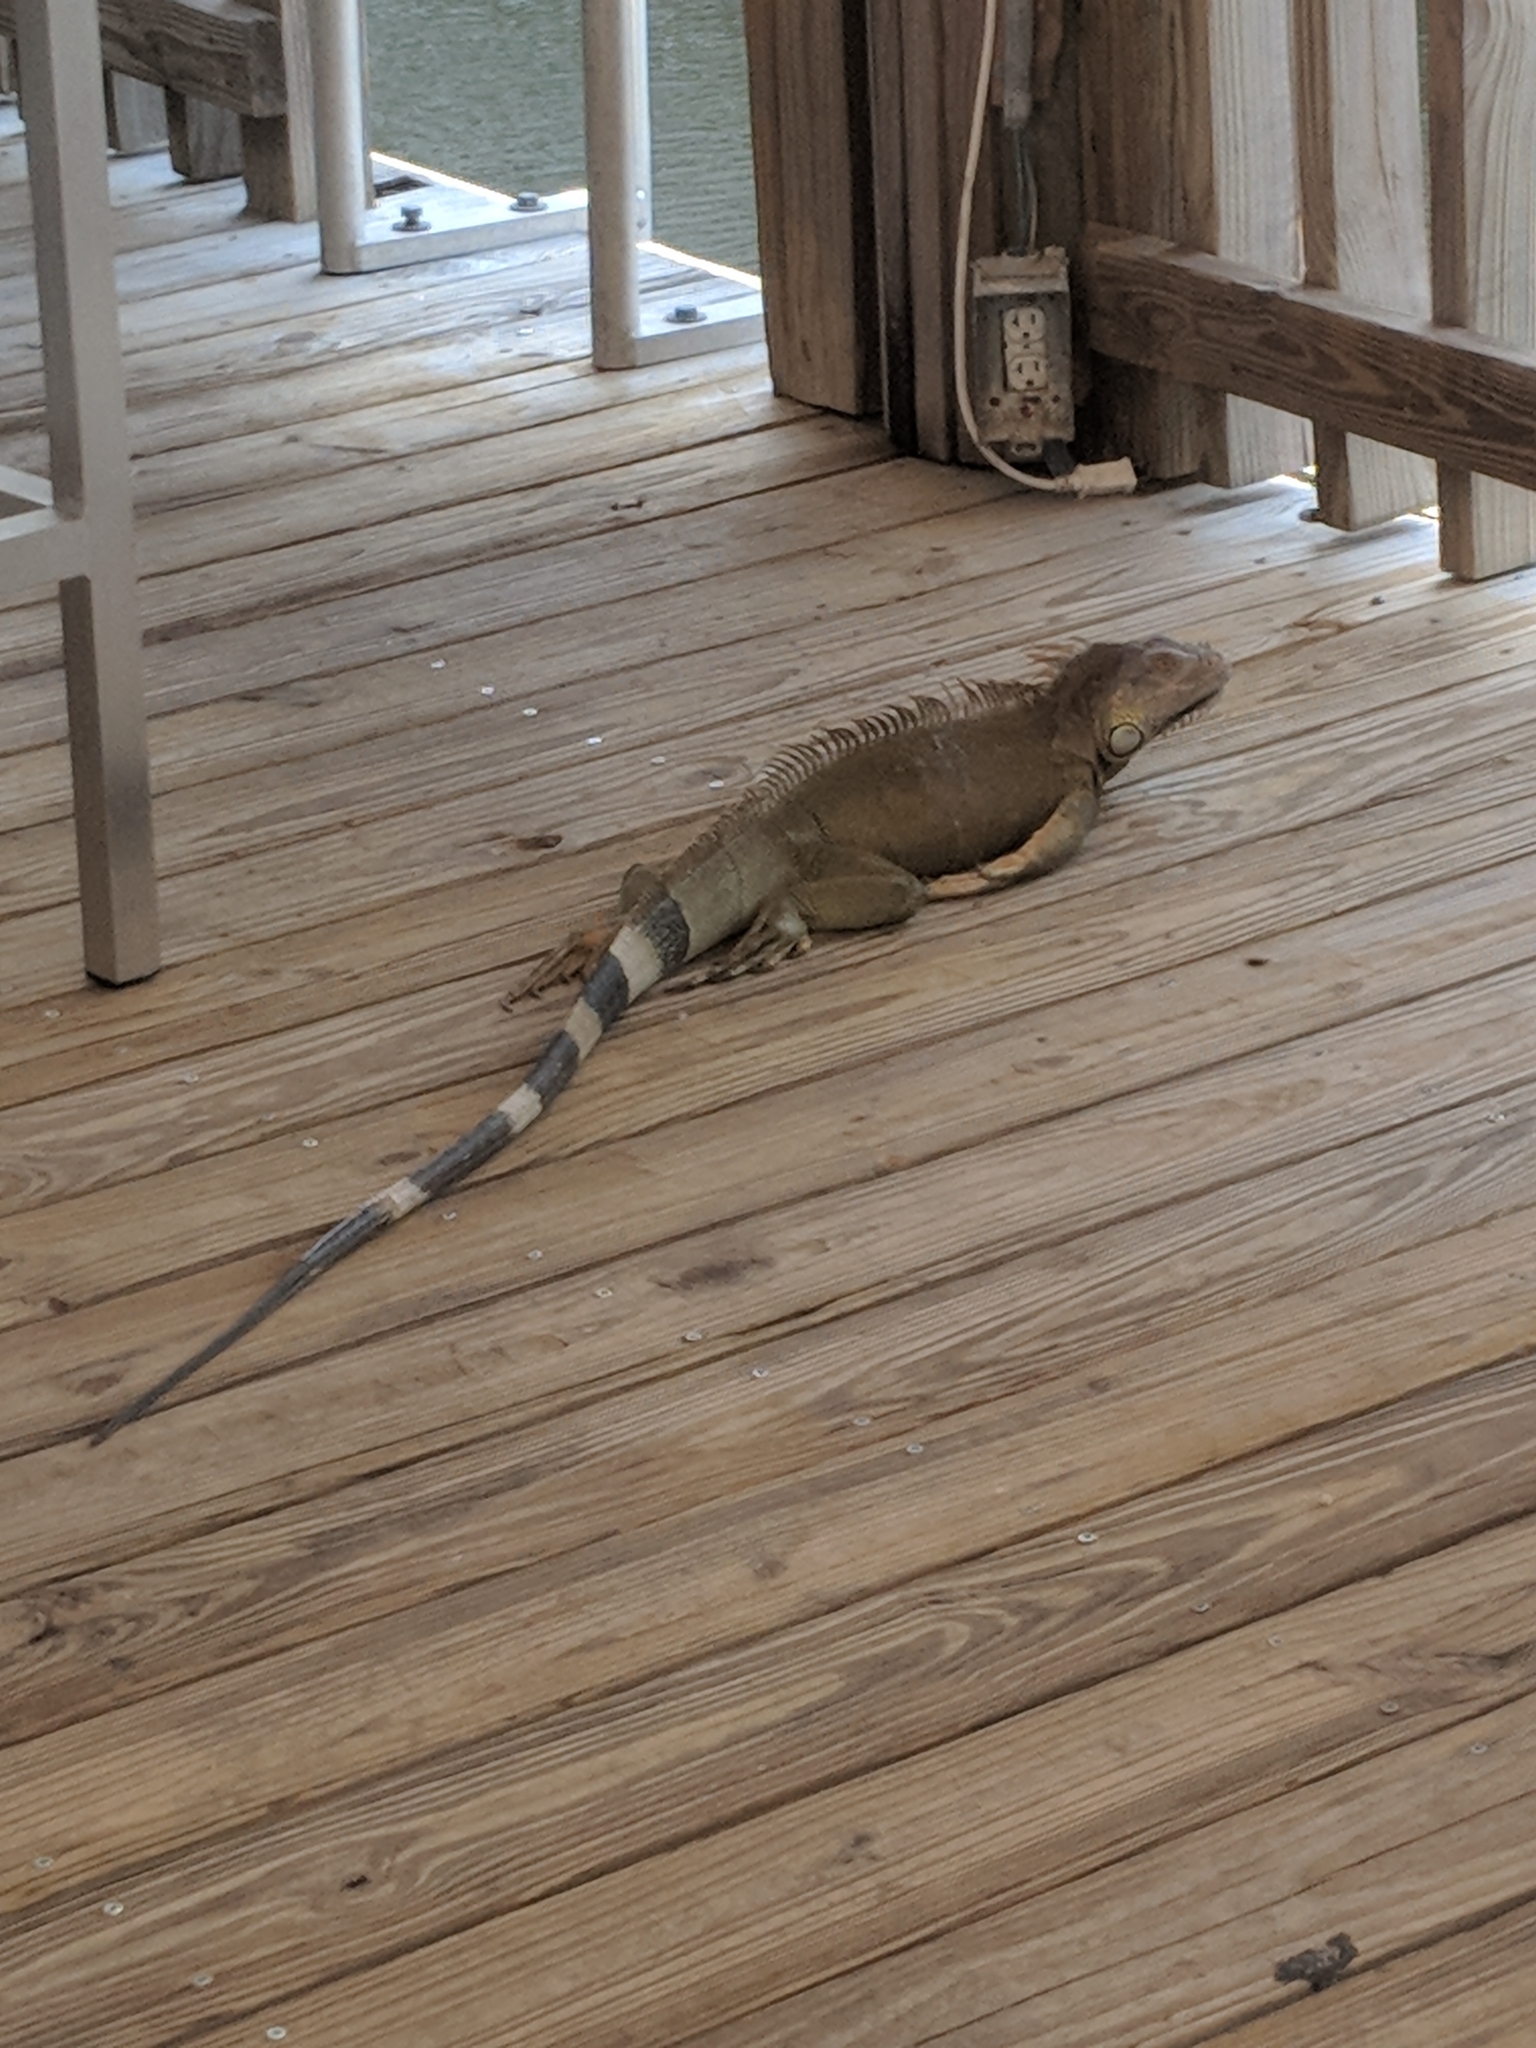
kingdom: Animalia
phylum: Chordata
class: Squamata
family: Iguanidae
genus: Iguana
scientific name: Iguana iguana
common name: Green iguana
